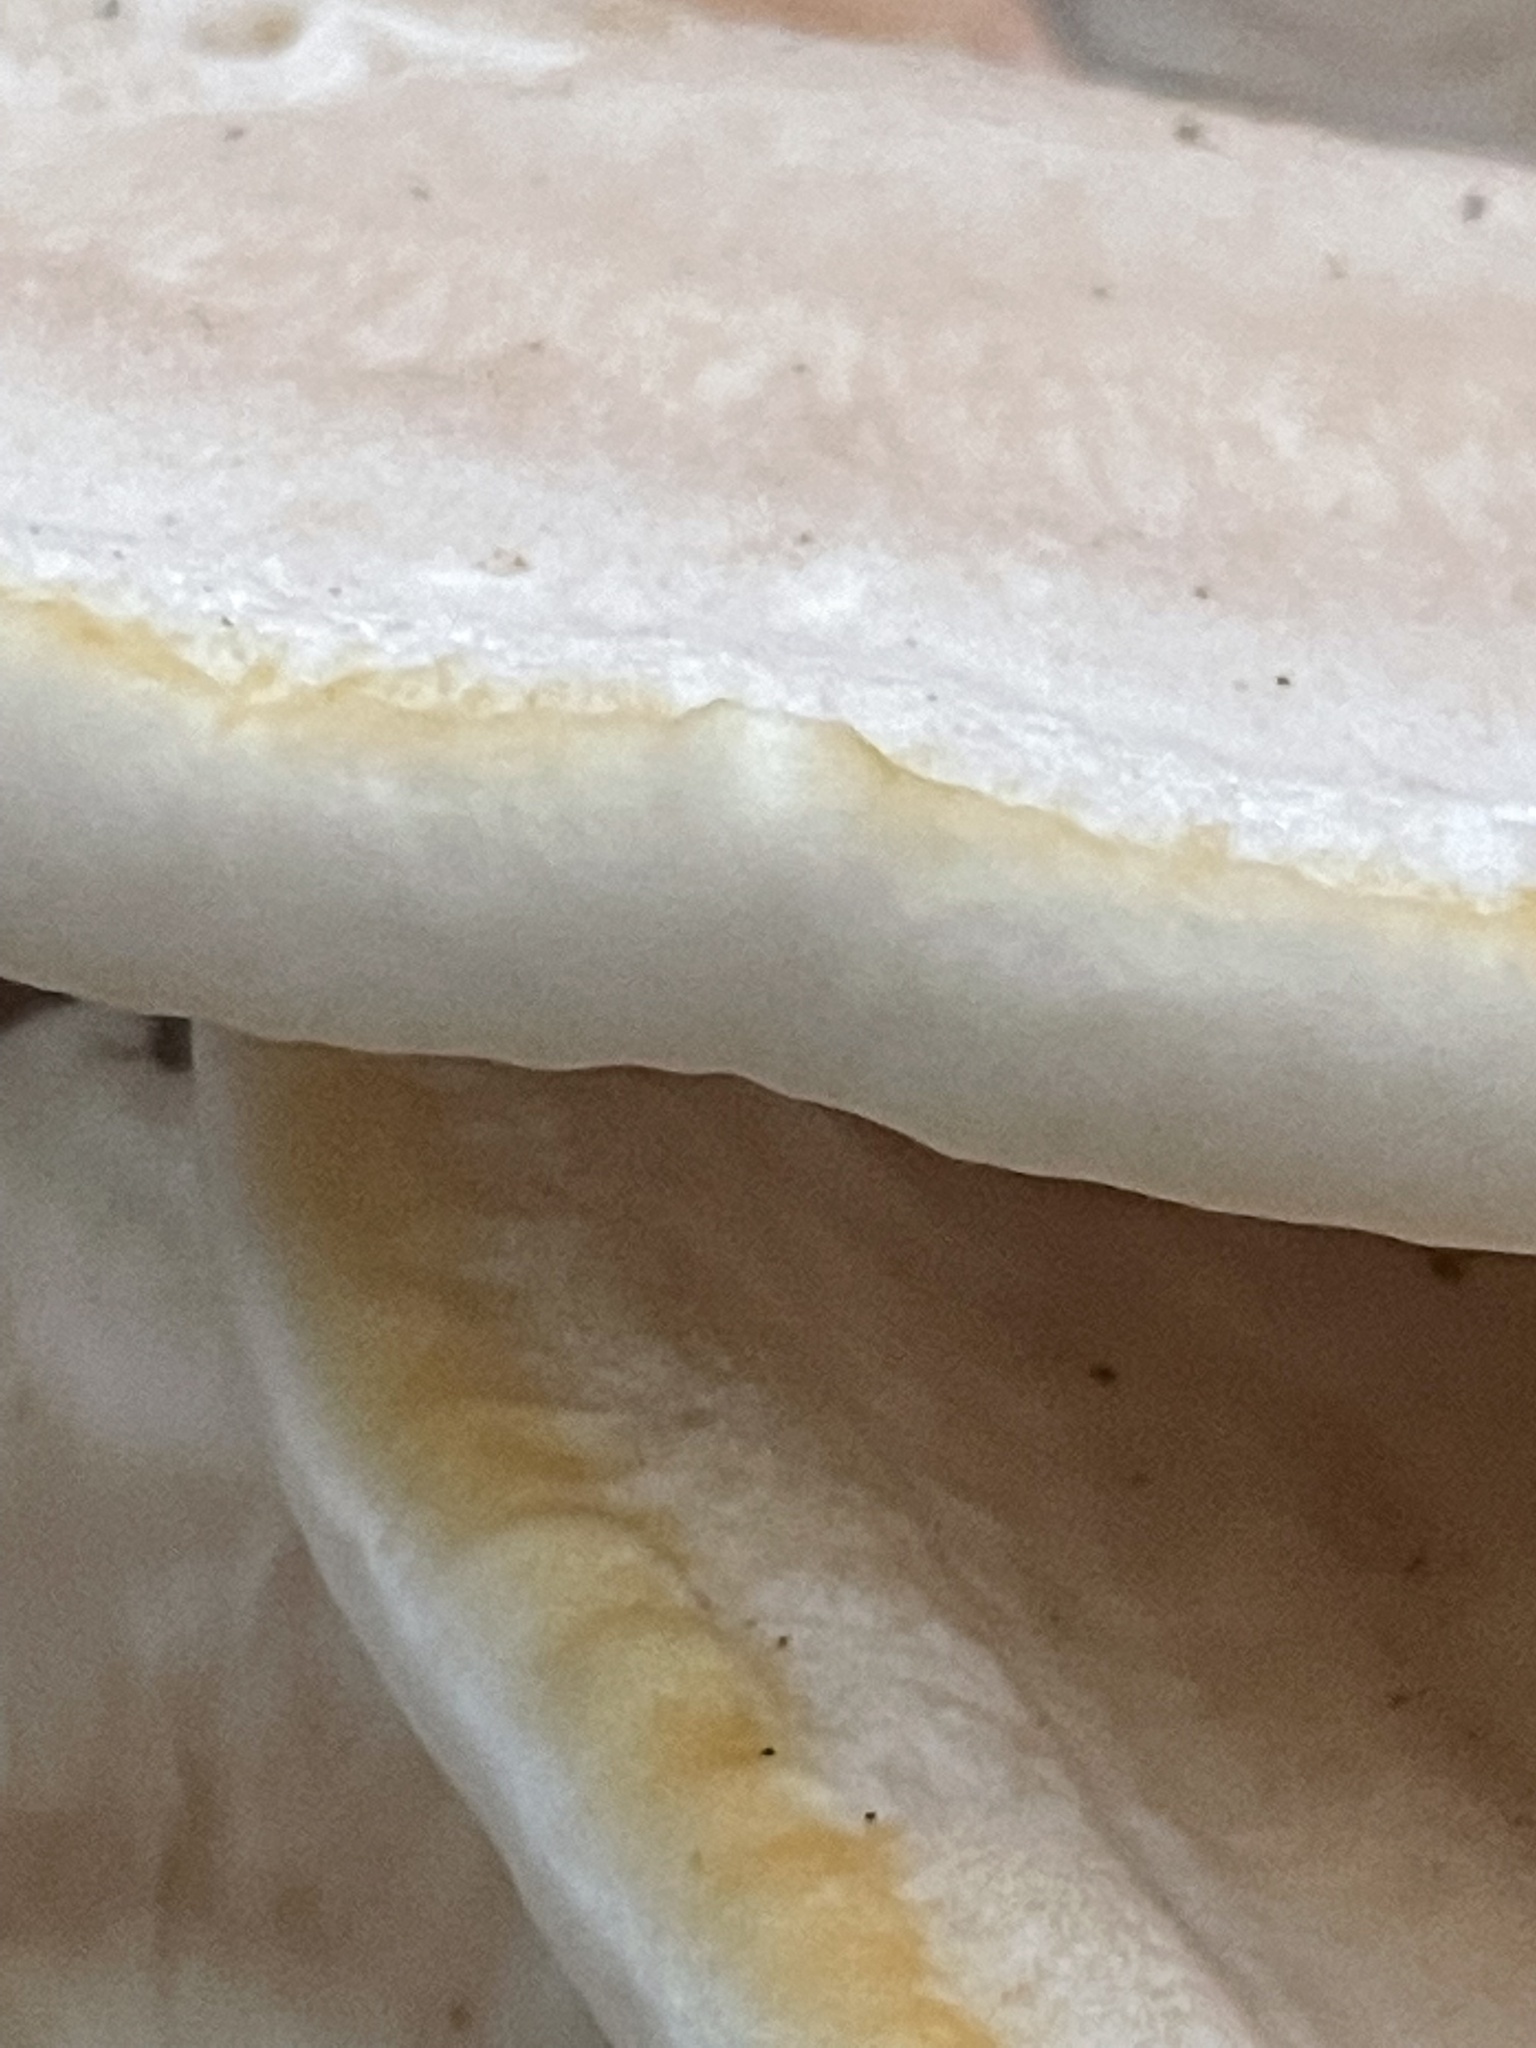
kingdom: Fungi
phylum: Basidiomycota
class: Agaricomycetes
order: Russulales
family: Bondarzewiaceae
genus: Bondarzewia
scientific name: Bondarzewia berkeleyi
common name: Berkeley's polypore
